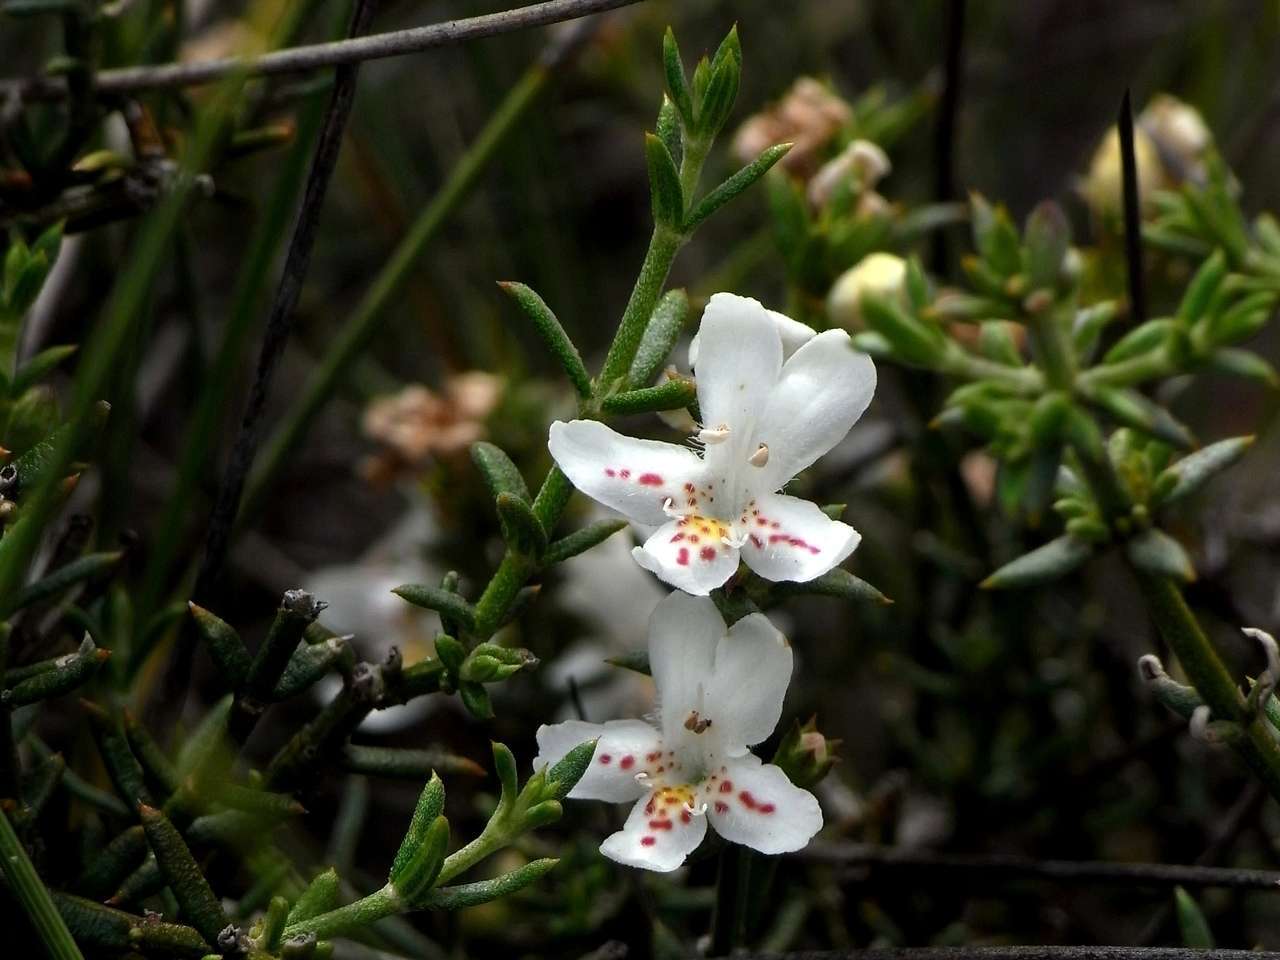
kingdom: Plantae
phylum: Tracheophyta
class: Magnoliopsida
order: Lamiales
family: Lamiaceae
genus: Westringia
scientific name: Westringia rigida
